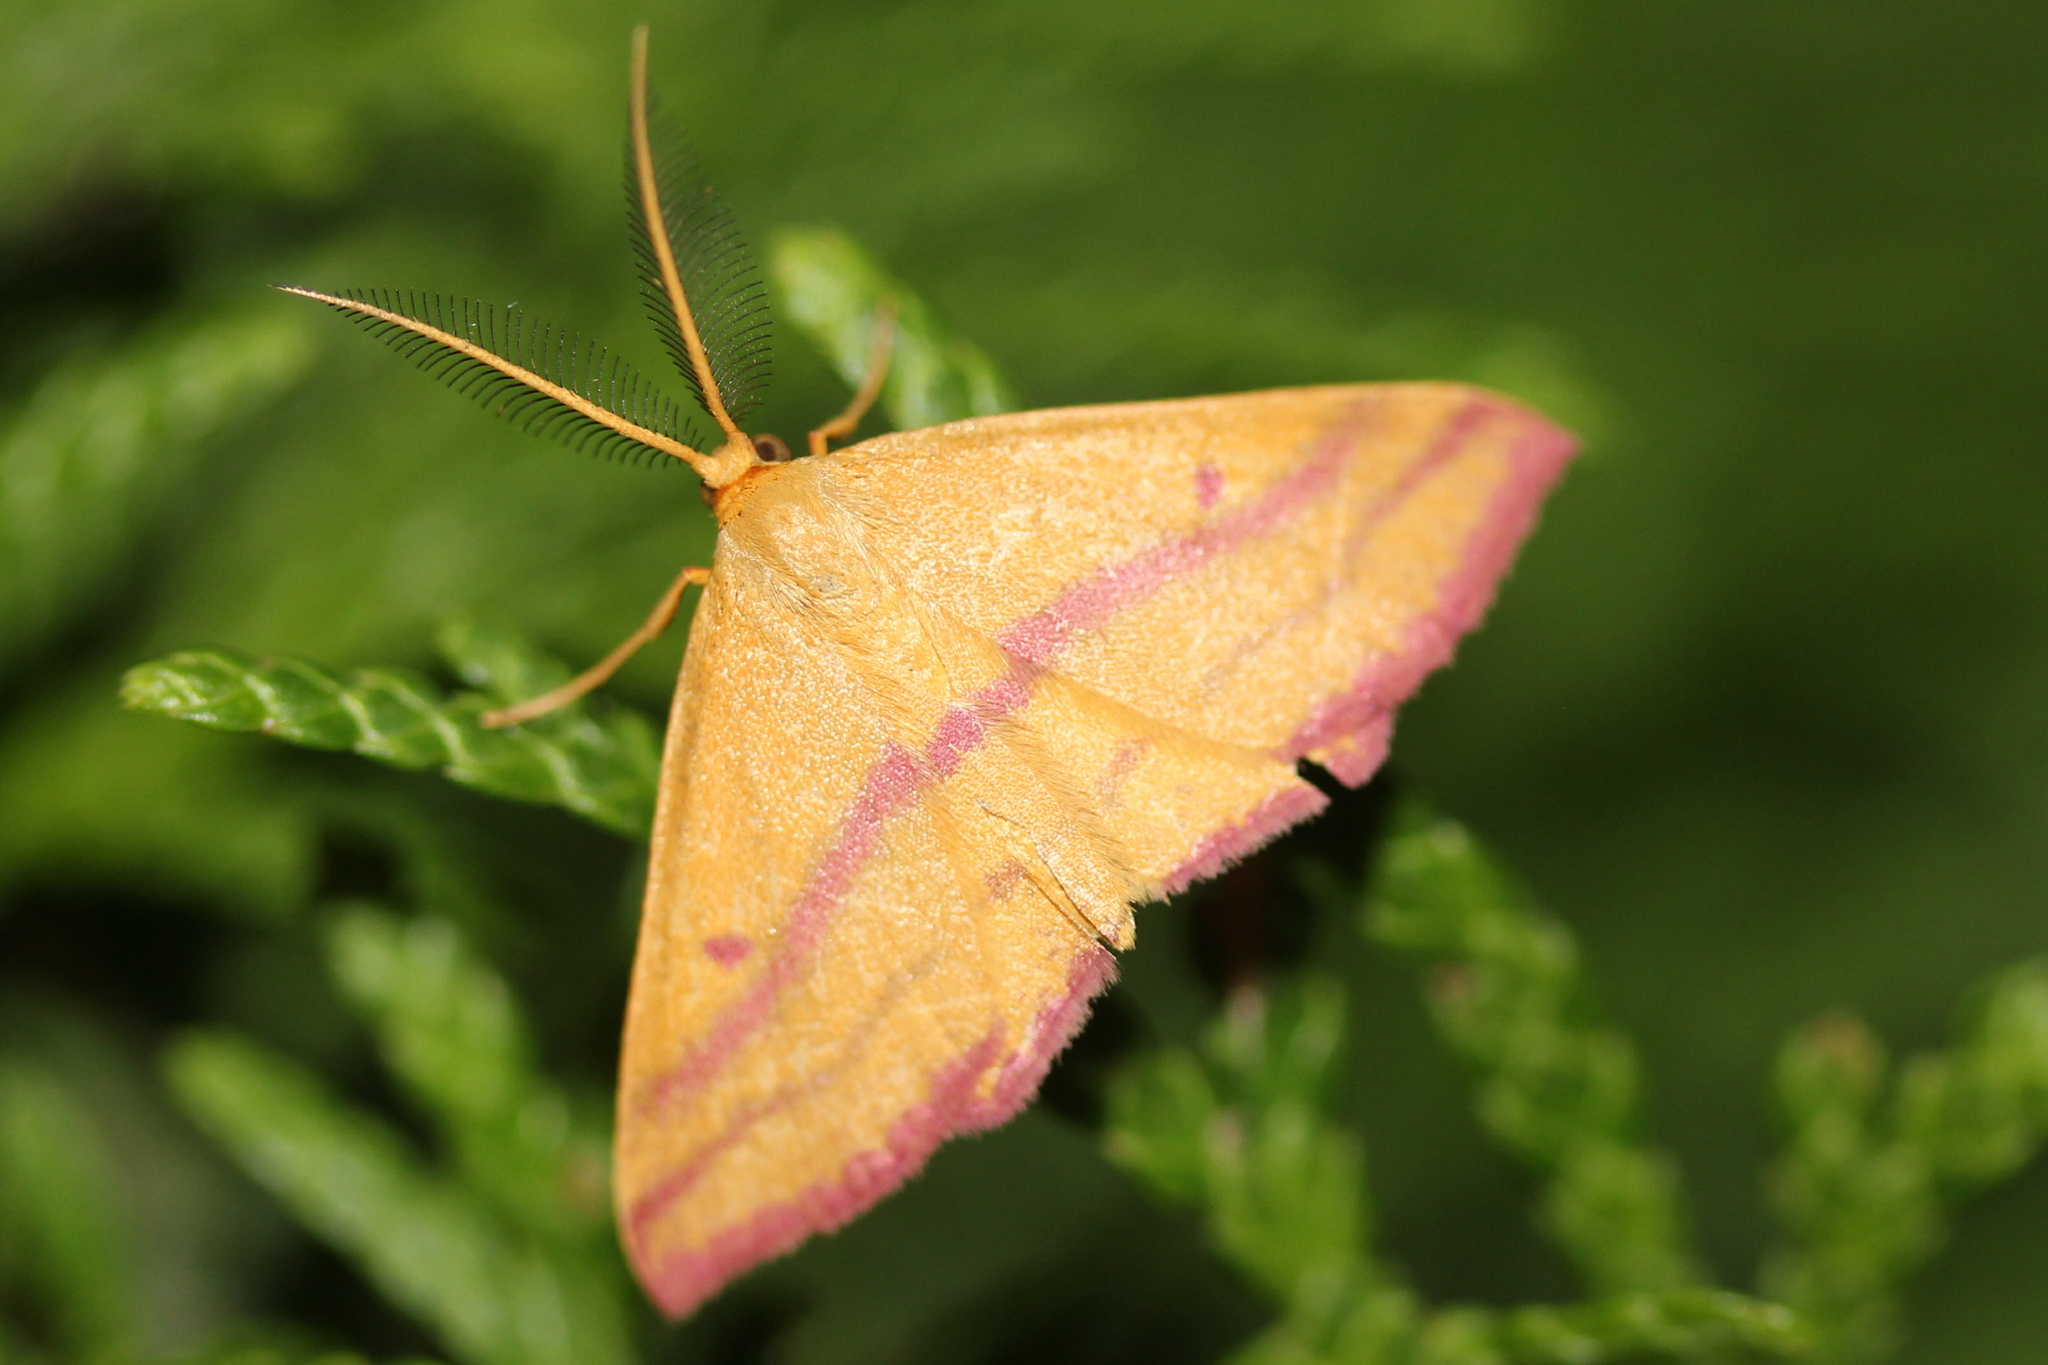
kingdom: Animalia
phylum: Arthropoda
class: Insecta
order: Lepidoptera
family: Geometridae
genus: Haematopis
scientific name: Haematopis grataria
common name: Chickweed geometer
